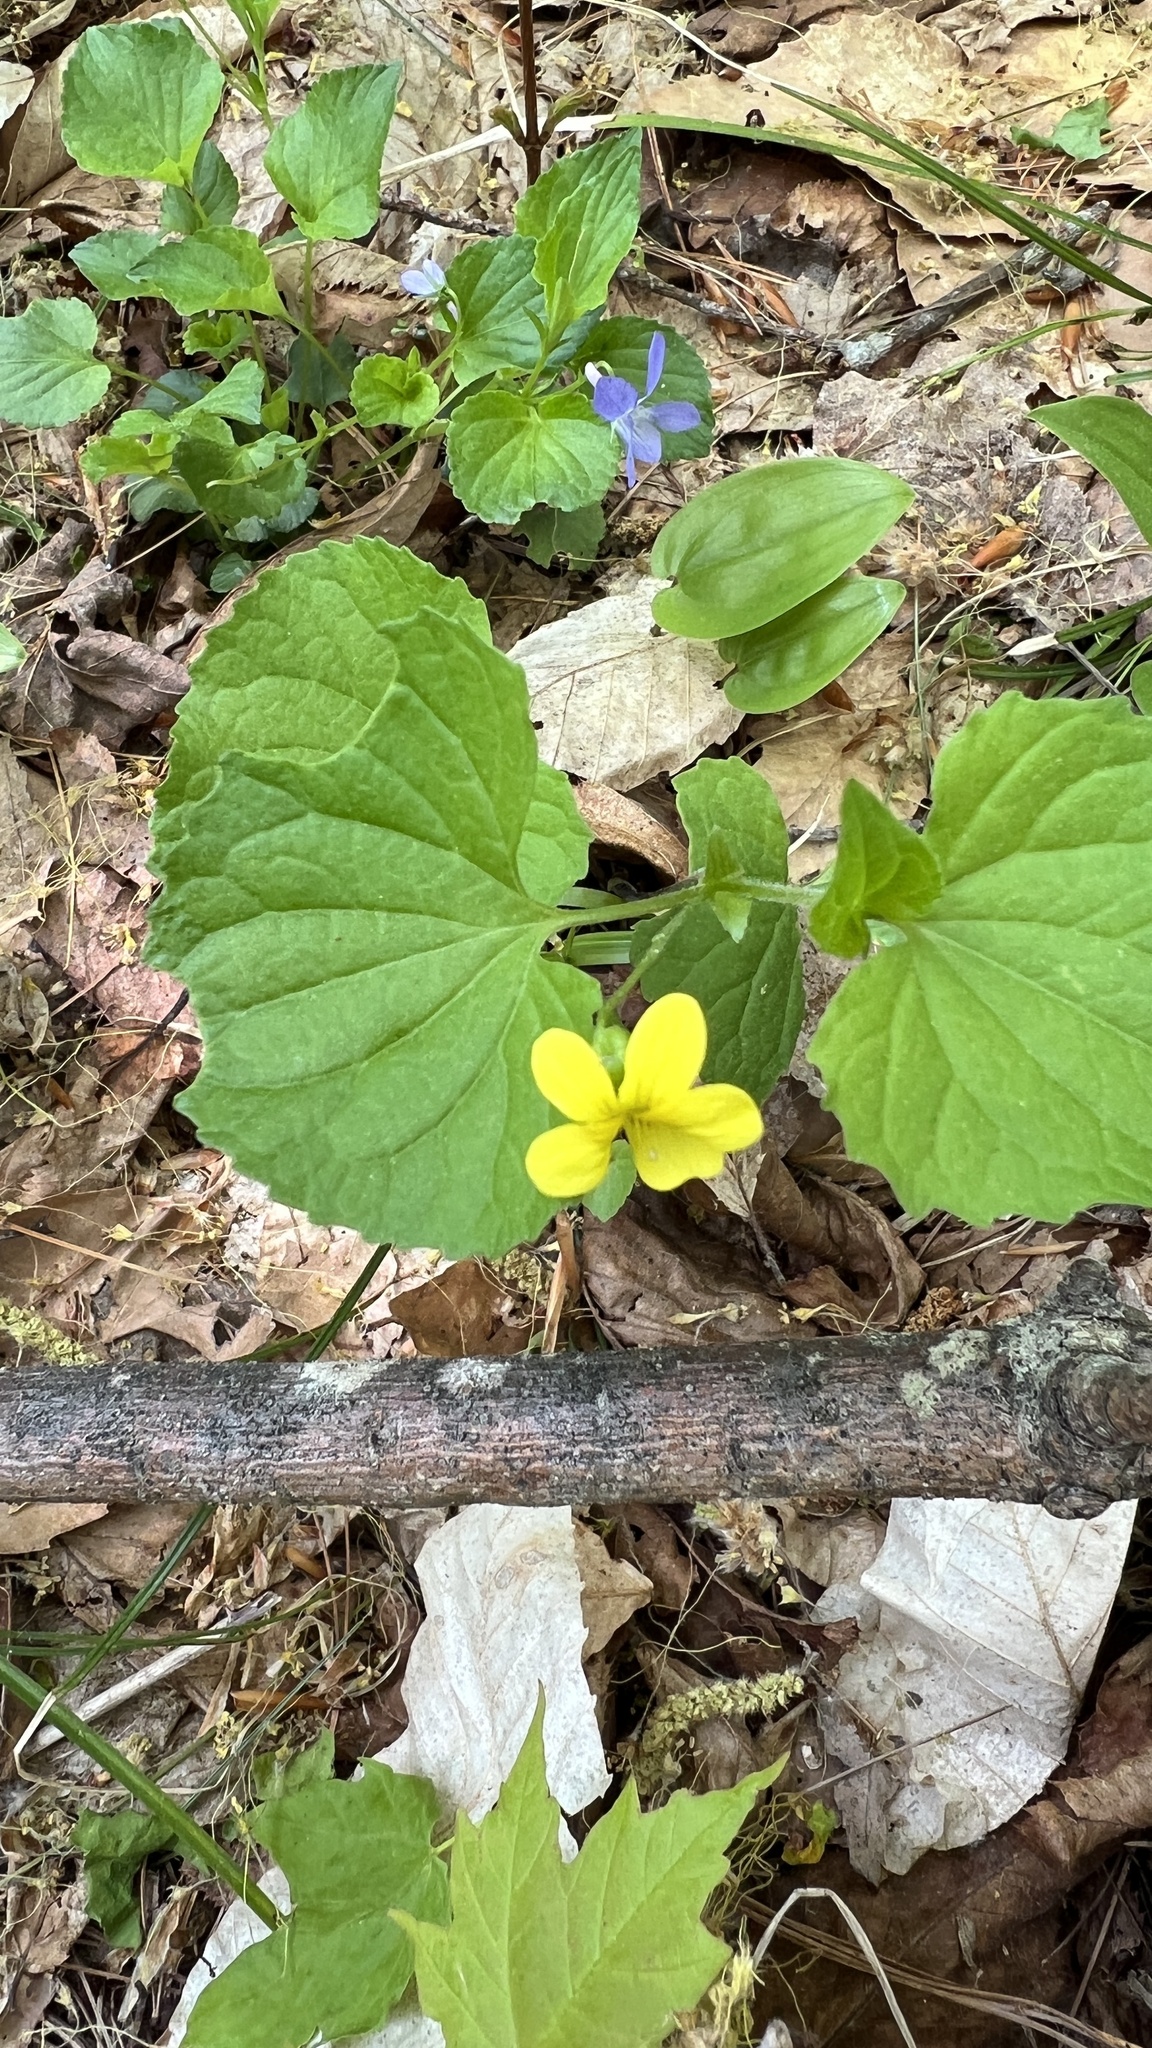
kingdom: Plantae
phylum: Tracheophyta
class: Magnoliopsida
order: Malpighiales
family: Violaceae
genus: Viola
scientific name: Viola eriocarpa
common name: Smooth yellow violet
